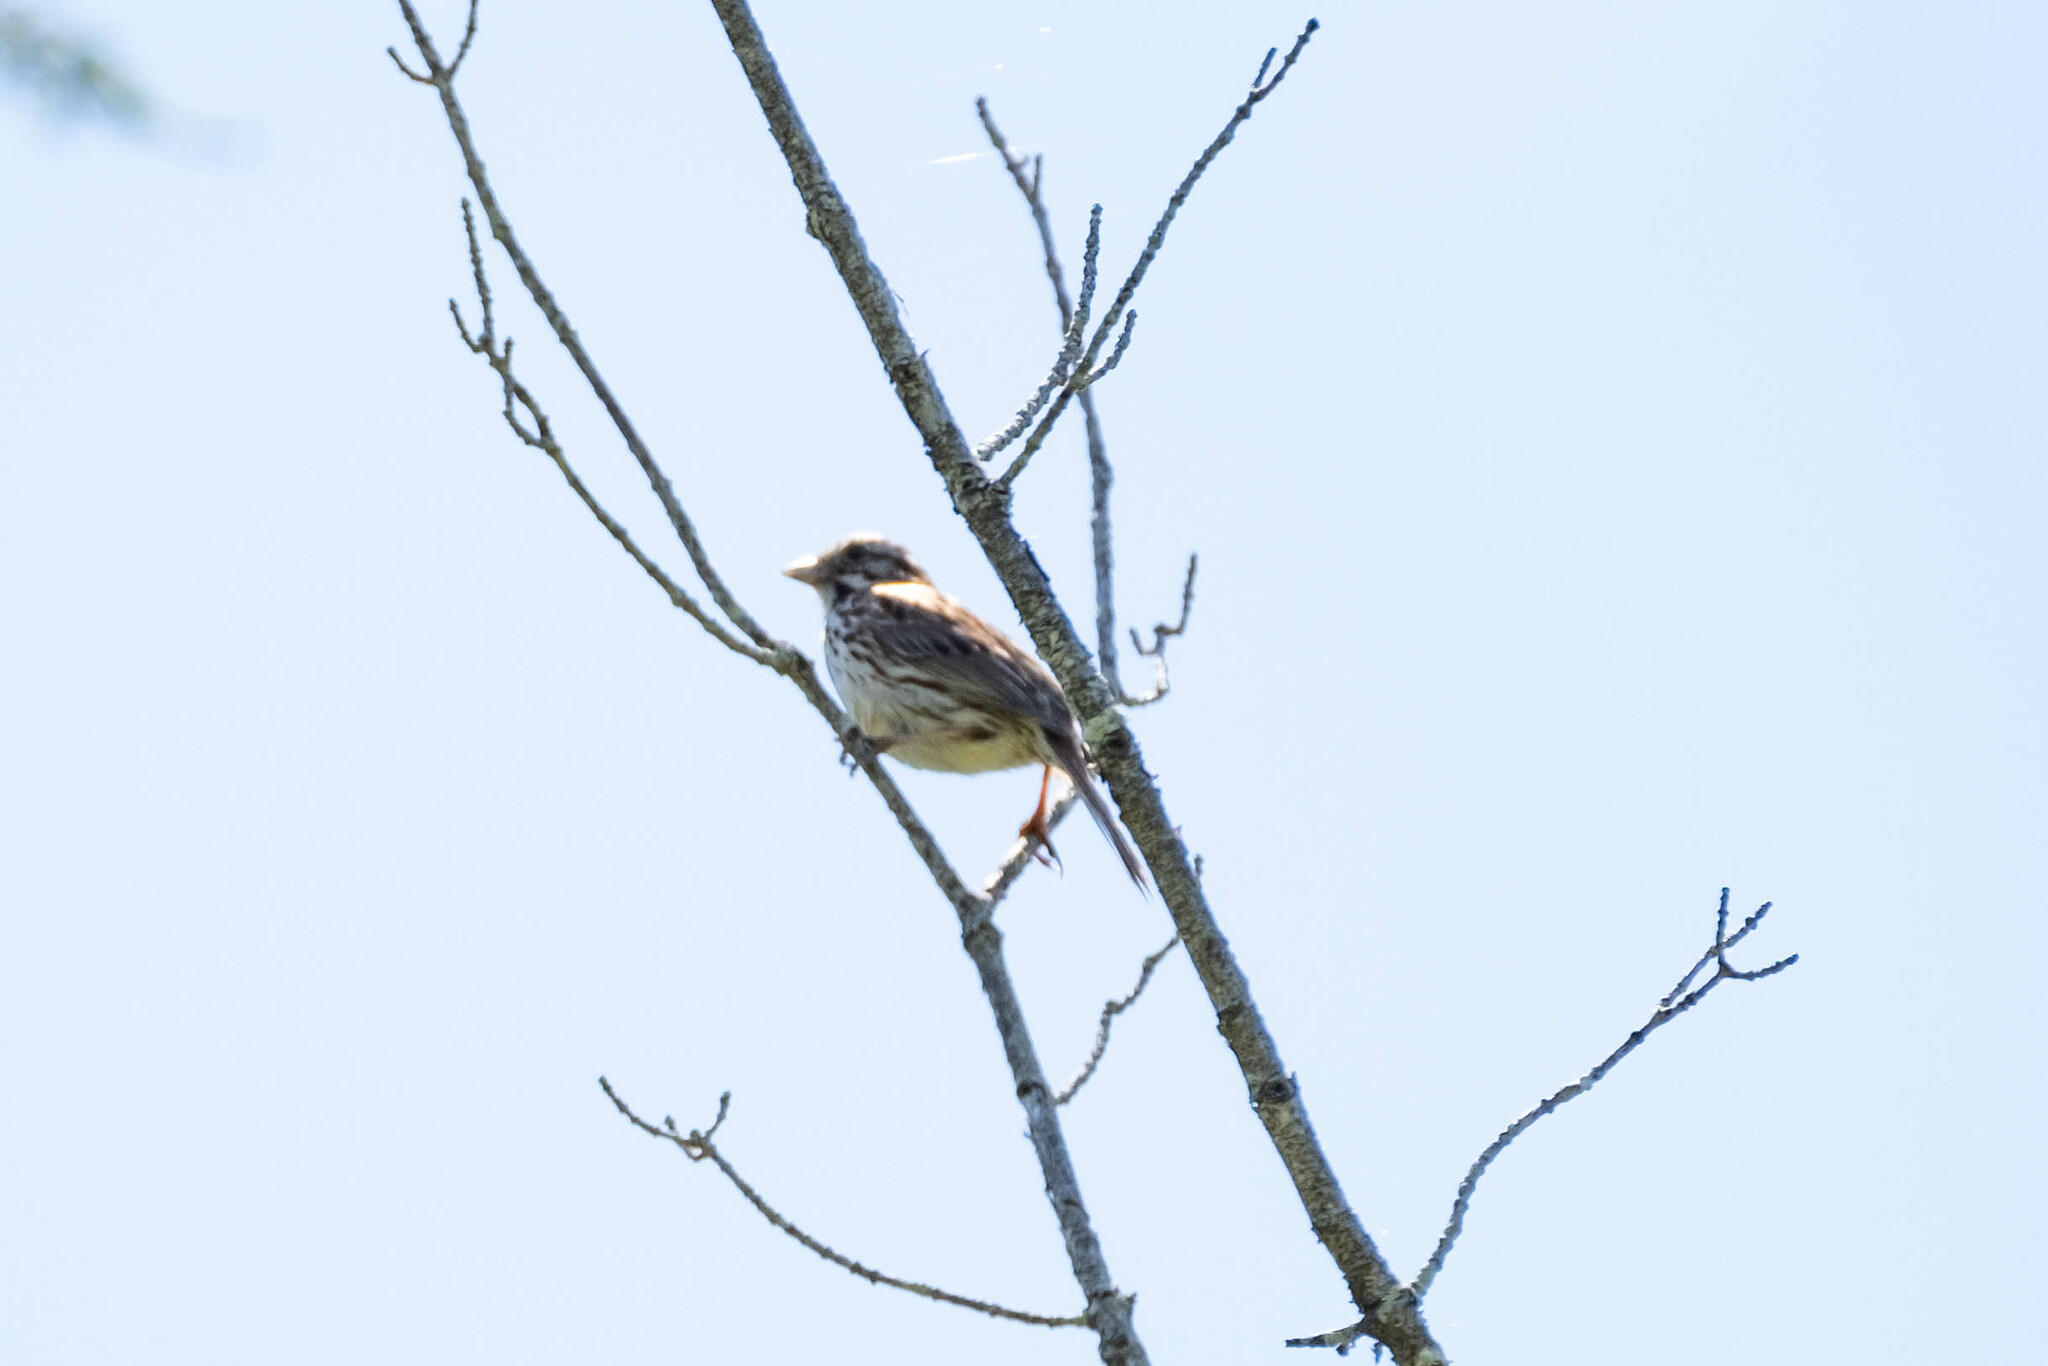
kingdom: Animalia
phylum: Chordata
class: Aves
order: Passeriformes
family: Passerellidae
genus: Melospiza
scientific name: Melospiza melodia
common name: Song sparrow
